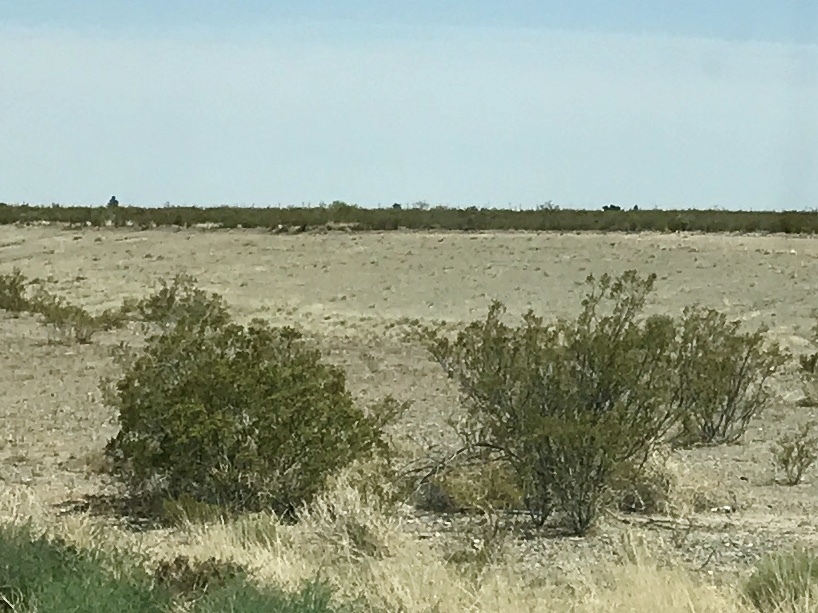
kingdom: Plantae
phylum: Tracheophyta
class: Magnoliopsida
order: Zygophyllales
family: Zygophyllaceae
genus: Larrea
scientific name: Larrea tridentata
